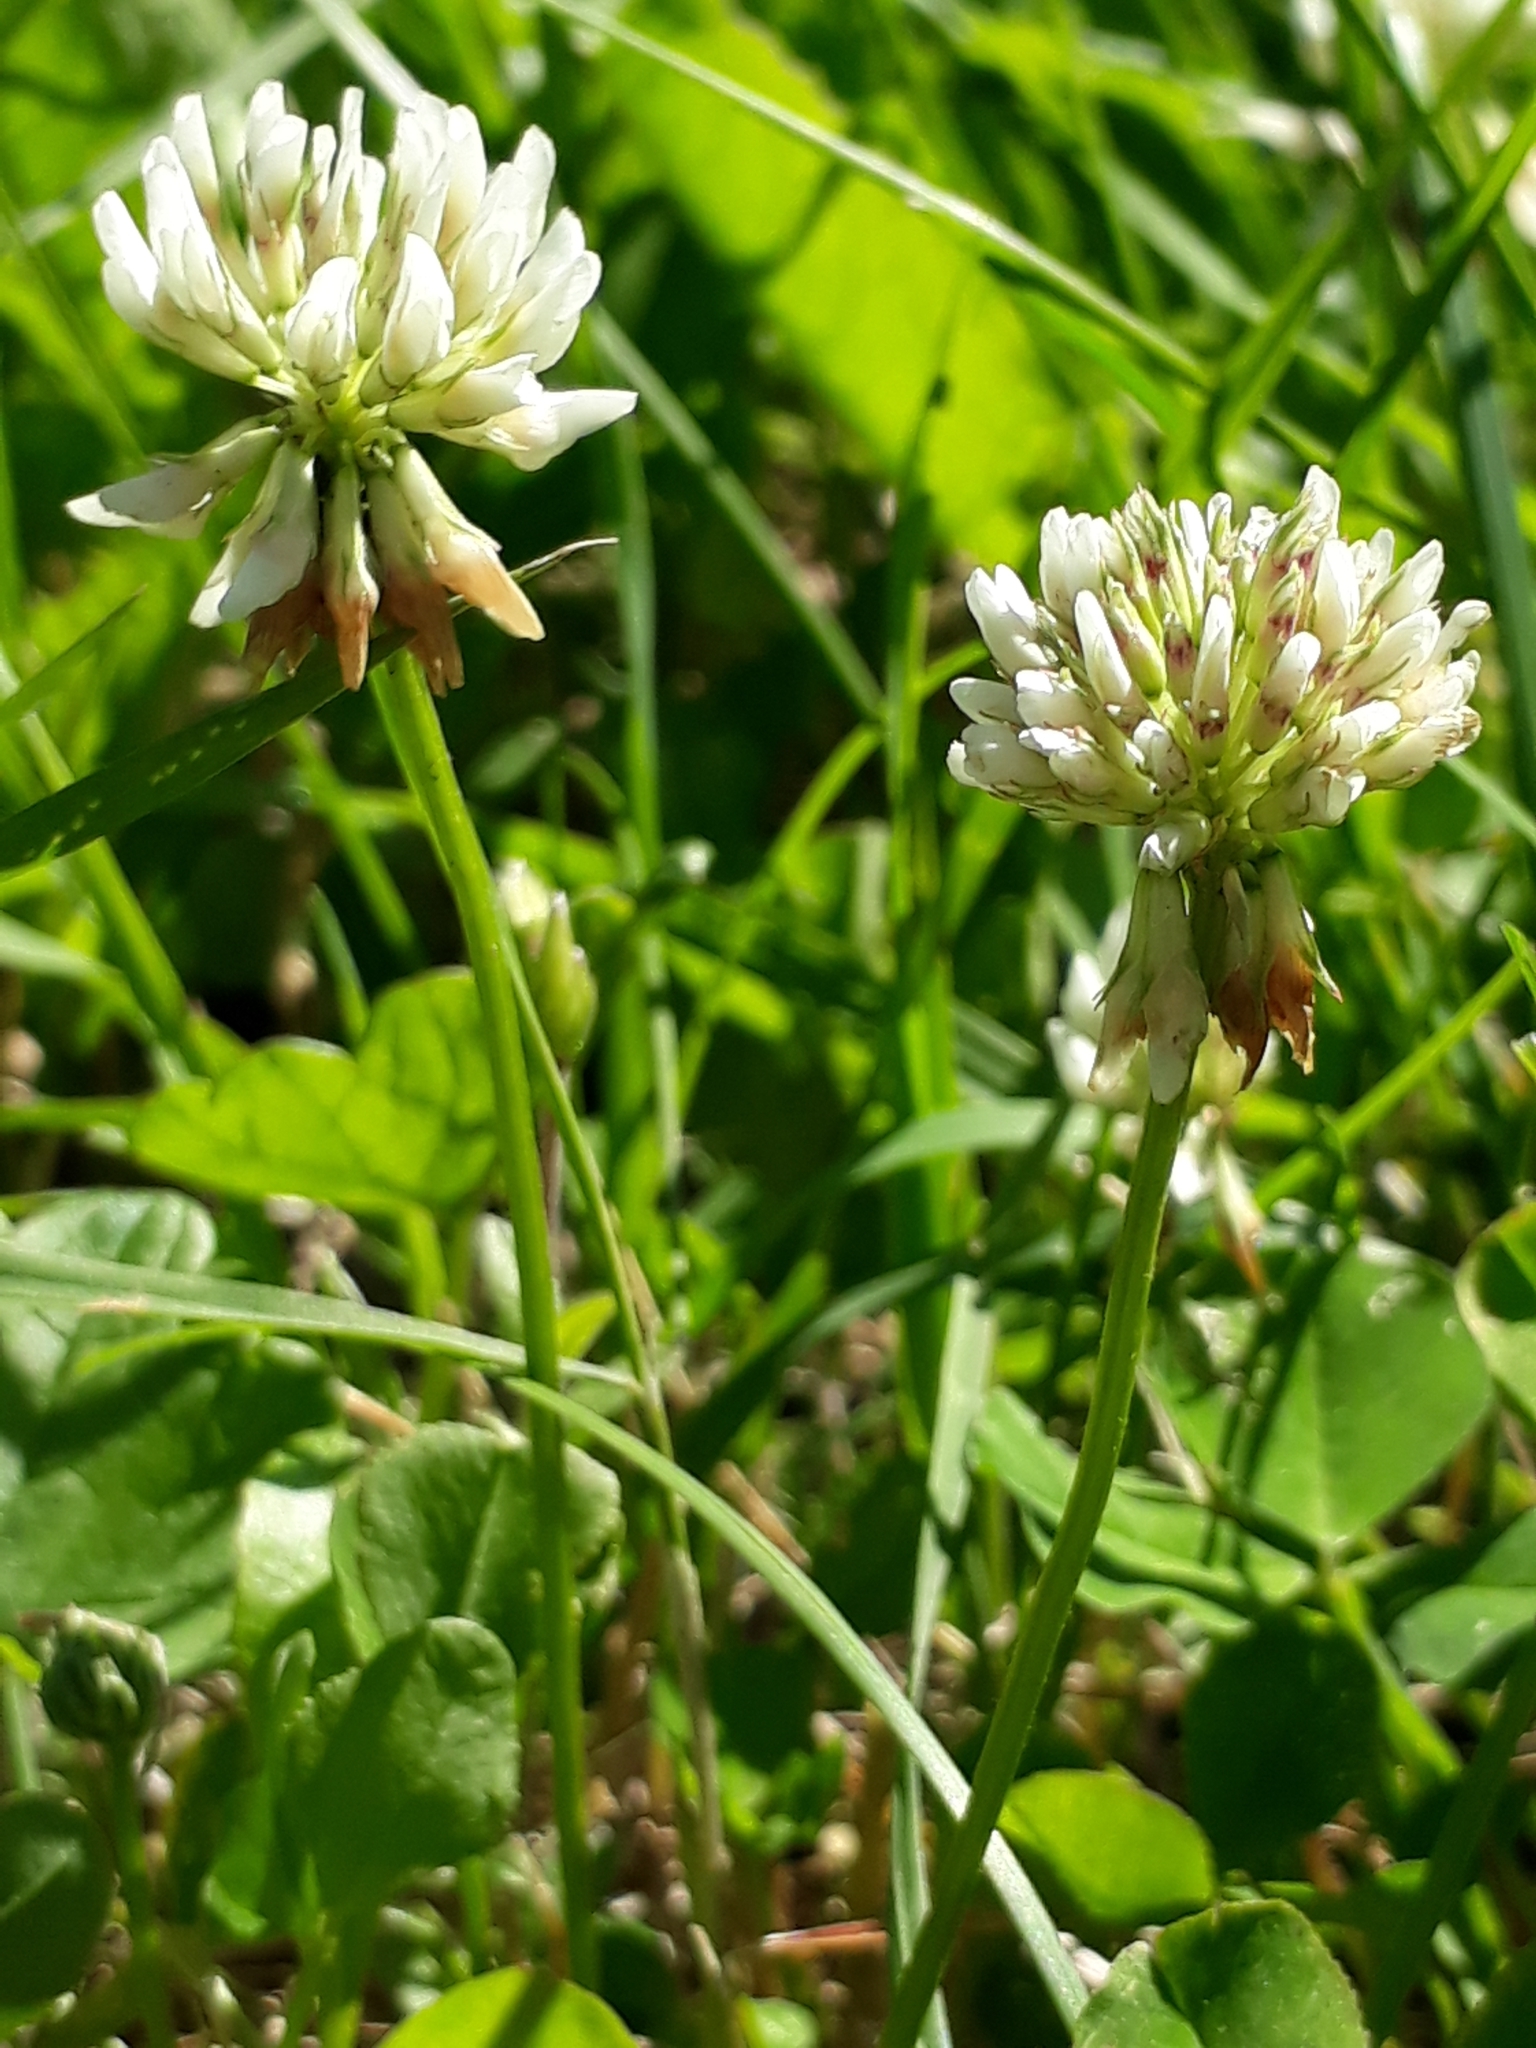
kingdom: Plantae
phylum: Tracheophyta
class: Magnoliopsida
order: Fabales
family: Fabaceae
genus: Trifolium
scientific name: Trifolium repens
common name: White clover
